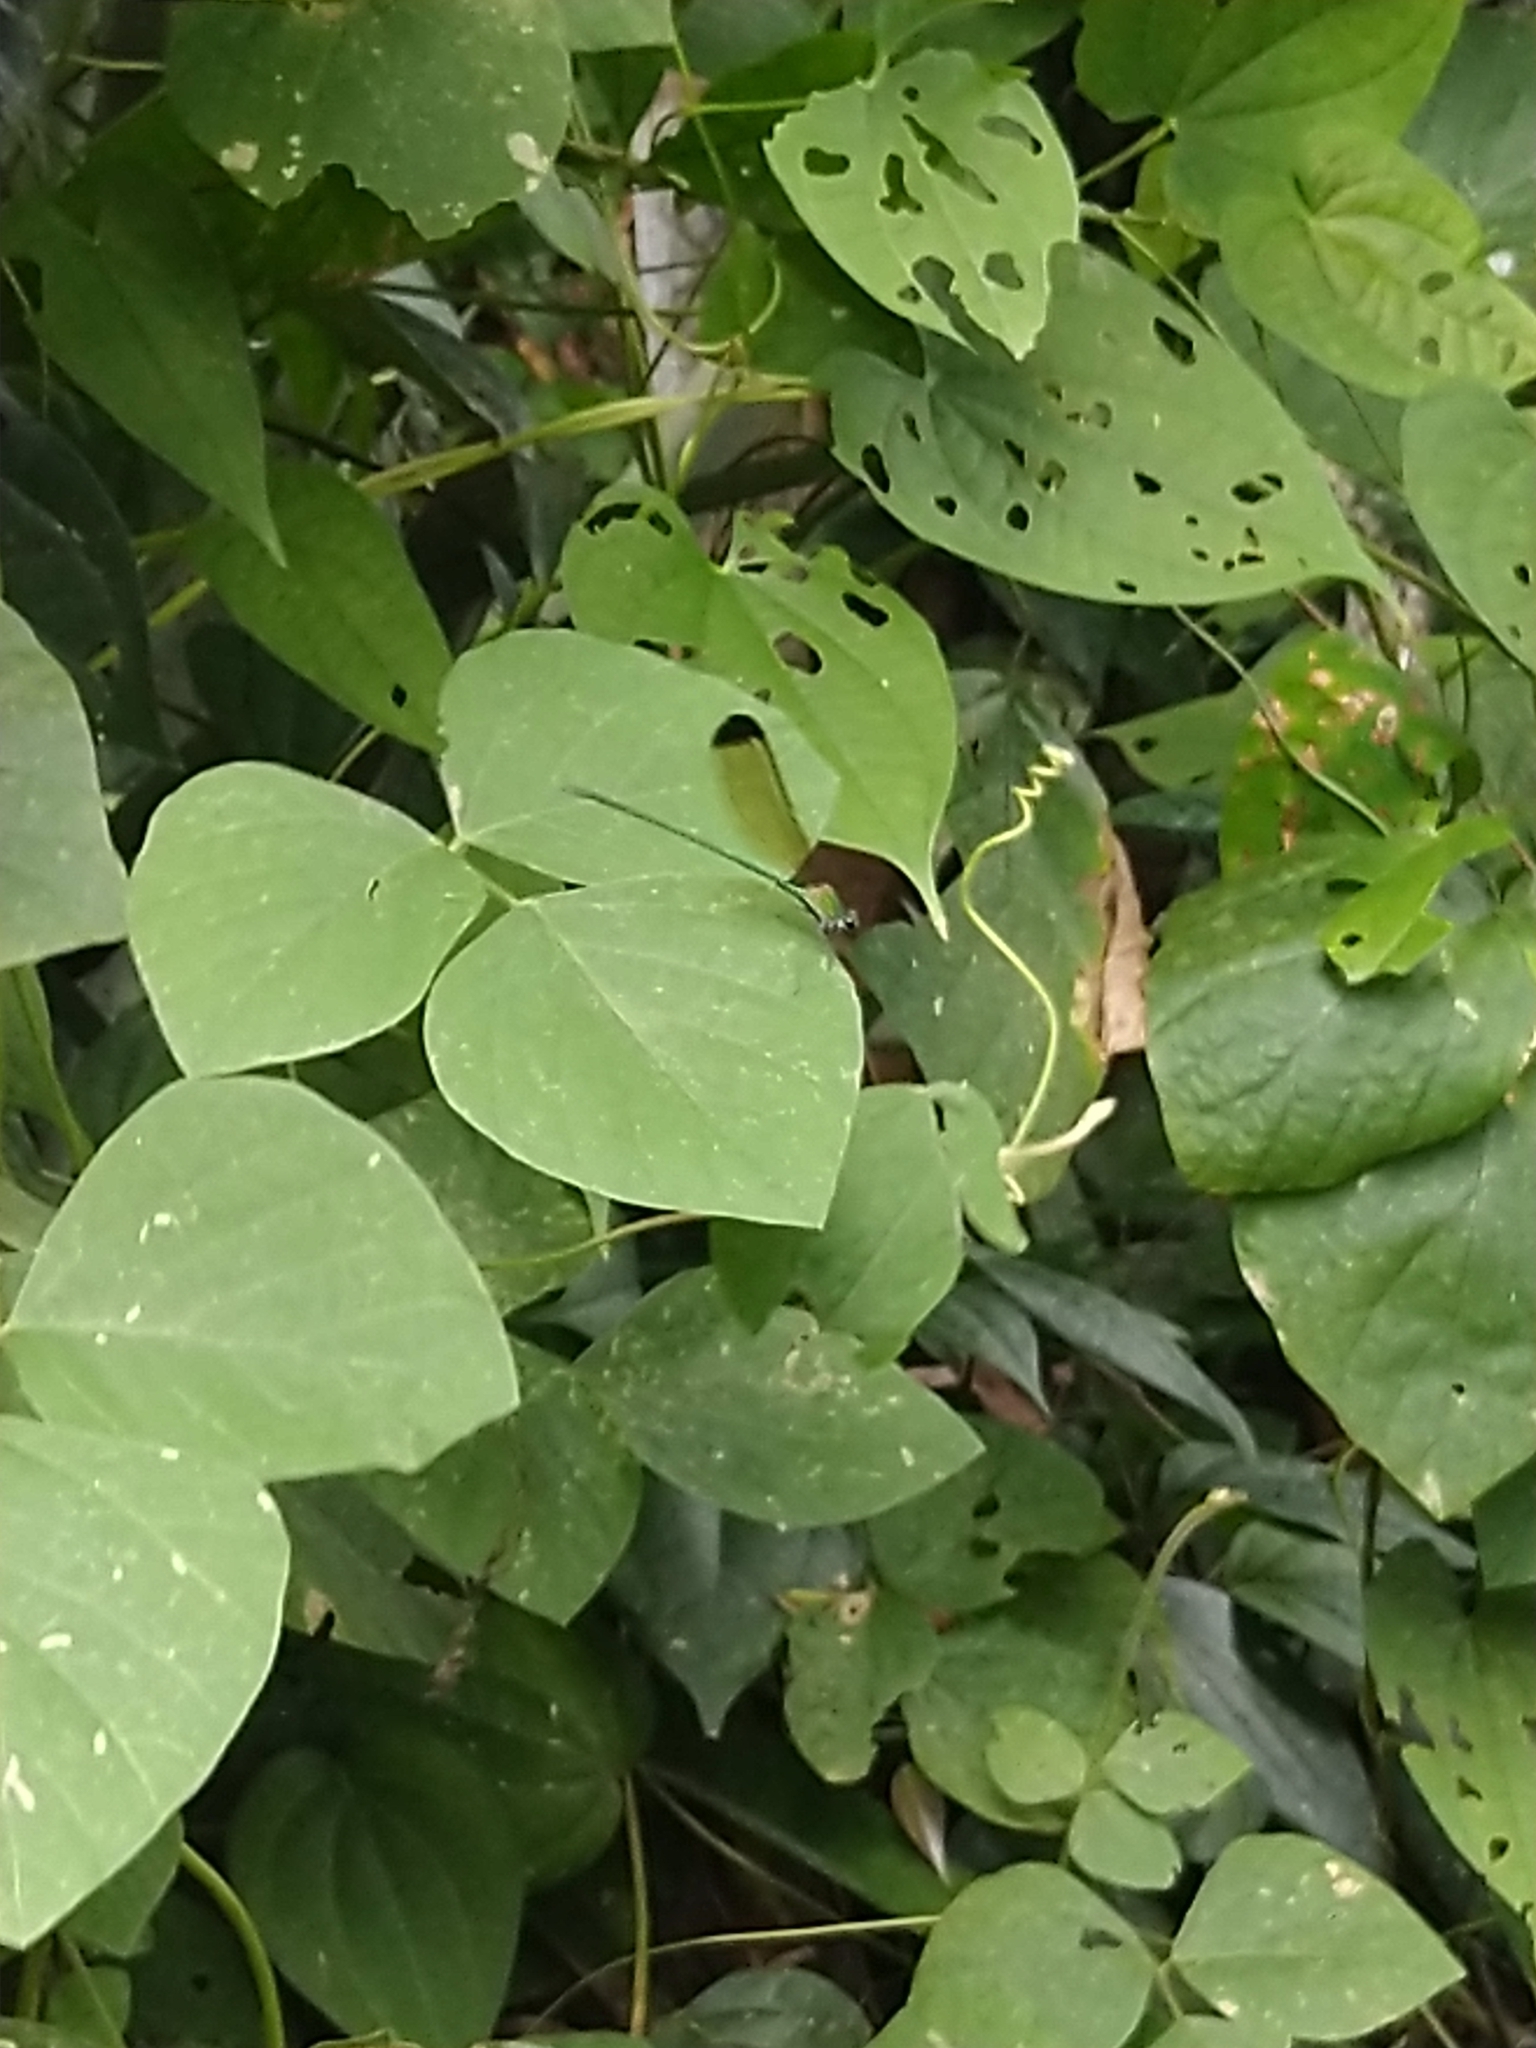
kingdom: Animalia
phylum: Arthropoda
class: Insecta
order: Odonata
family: Calopterygidae
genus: Vestalis
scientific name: Vestalis apicalis
